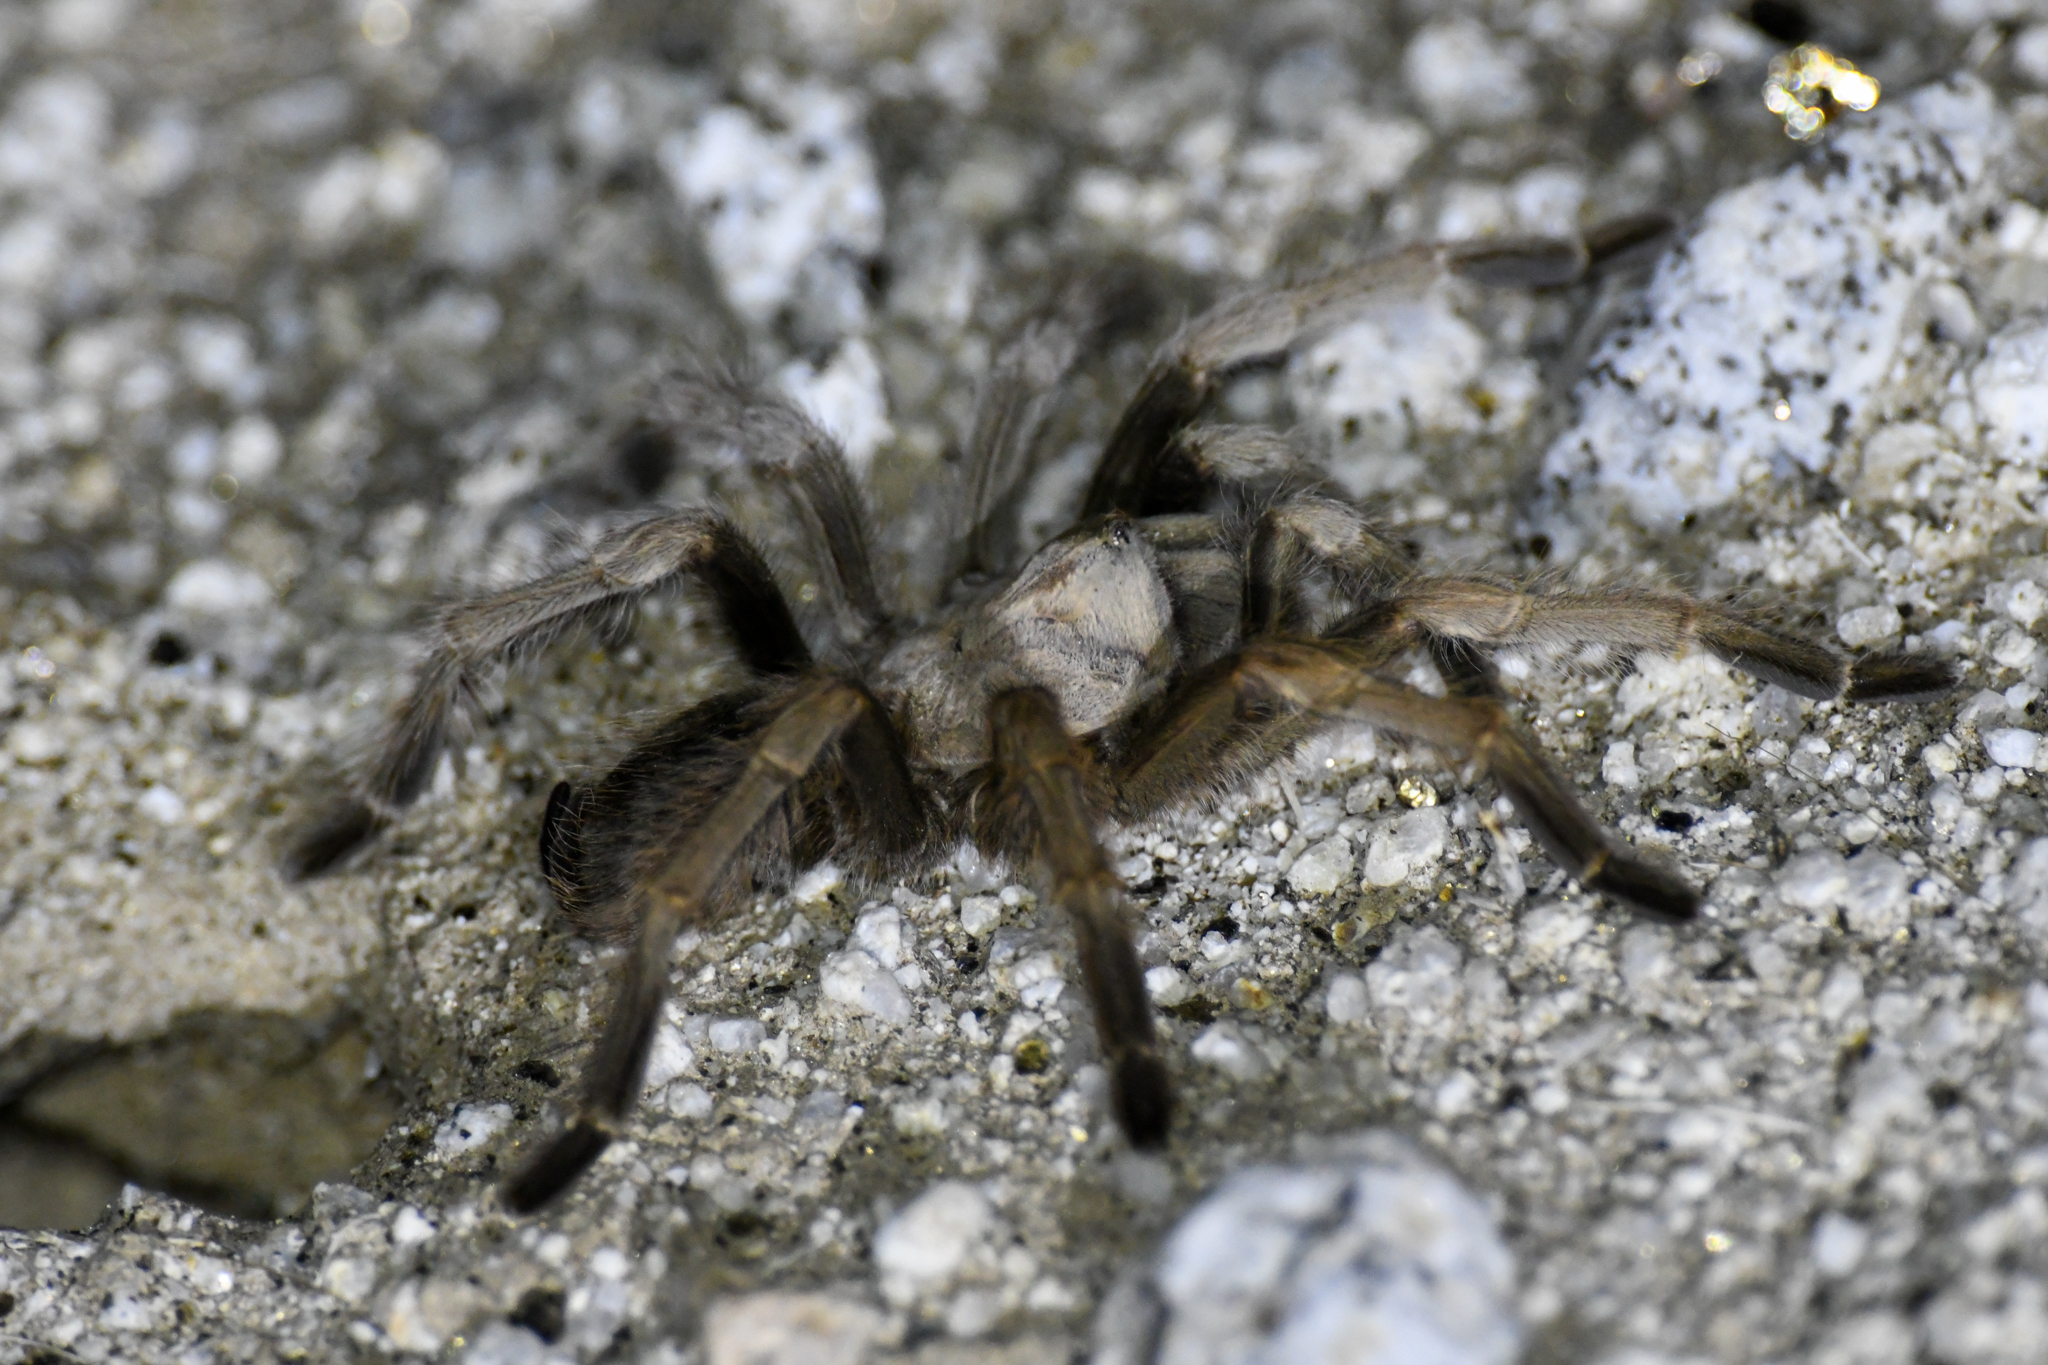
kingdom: Animalia
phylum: Arthropoda
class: Arachnida
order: Araneae
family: Theraphosidae
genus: Aphonopelma
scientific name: Aphonopelma eutylenum
